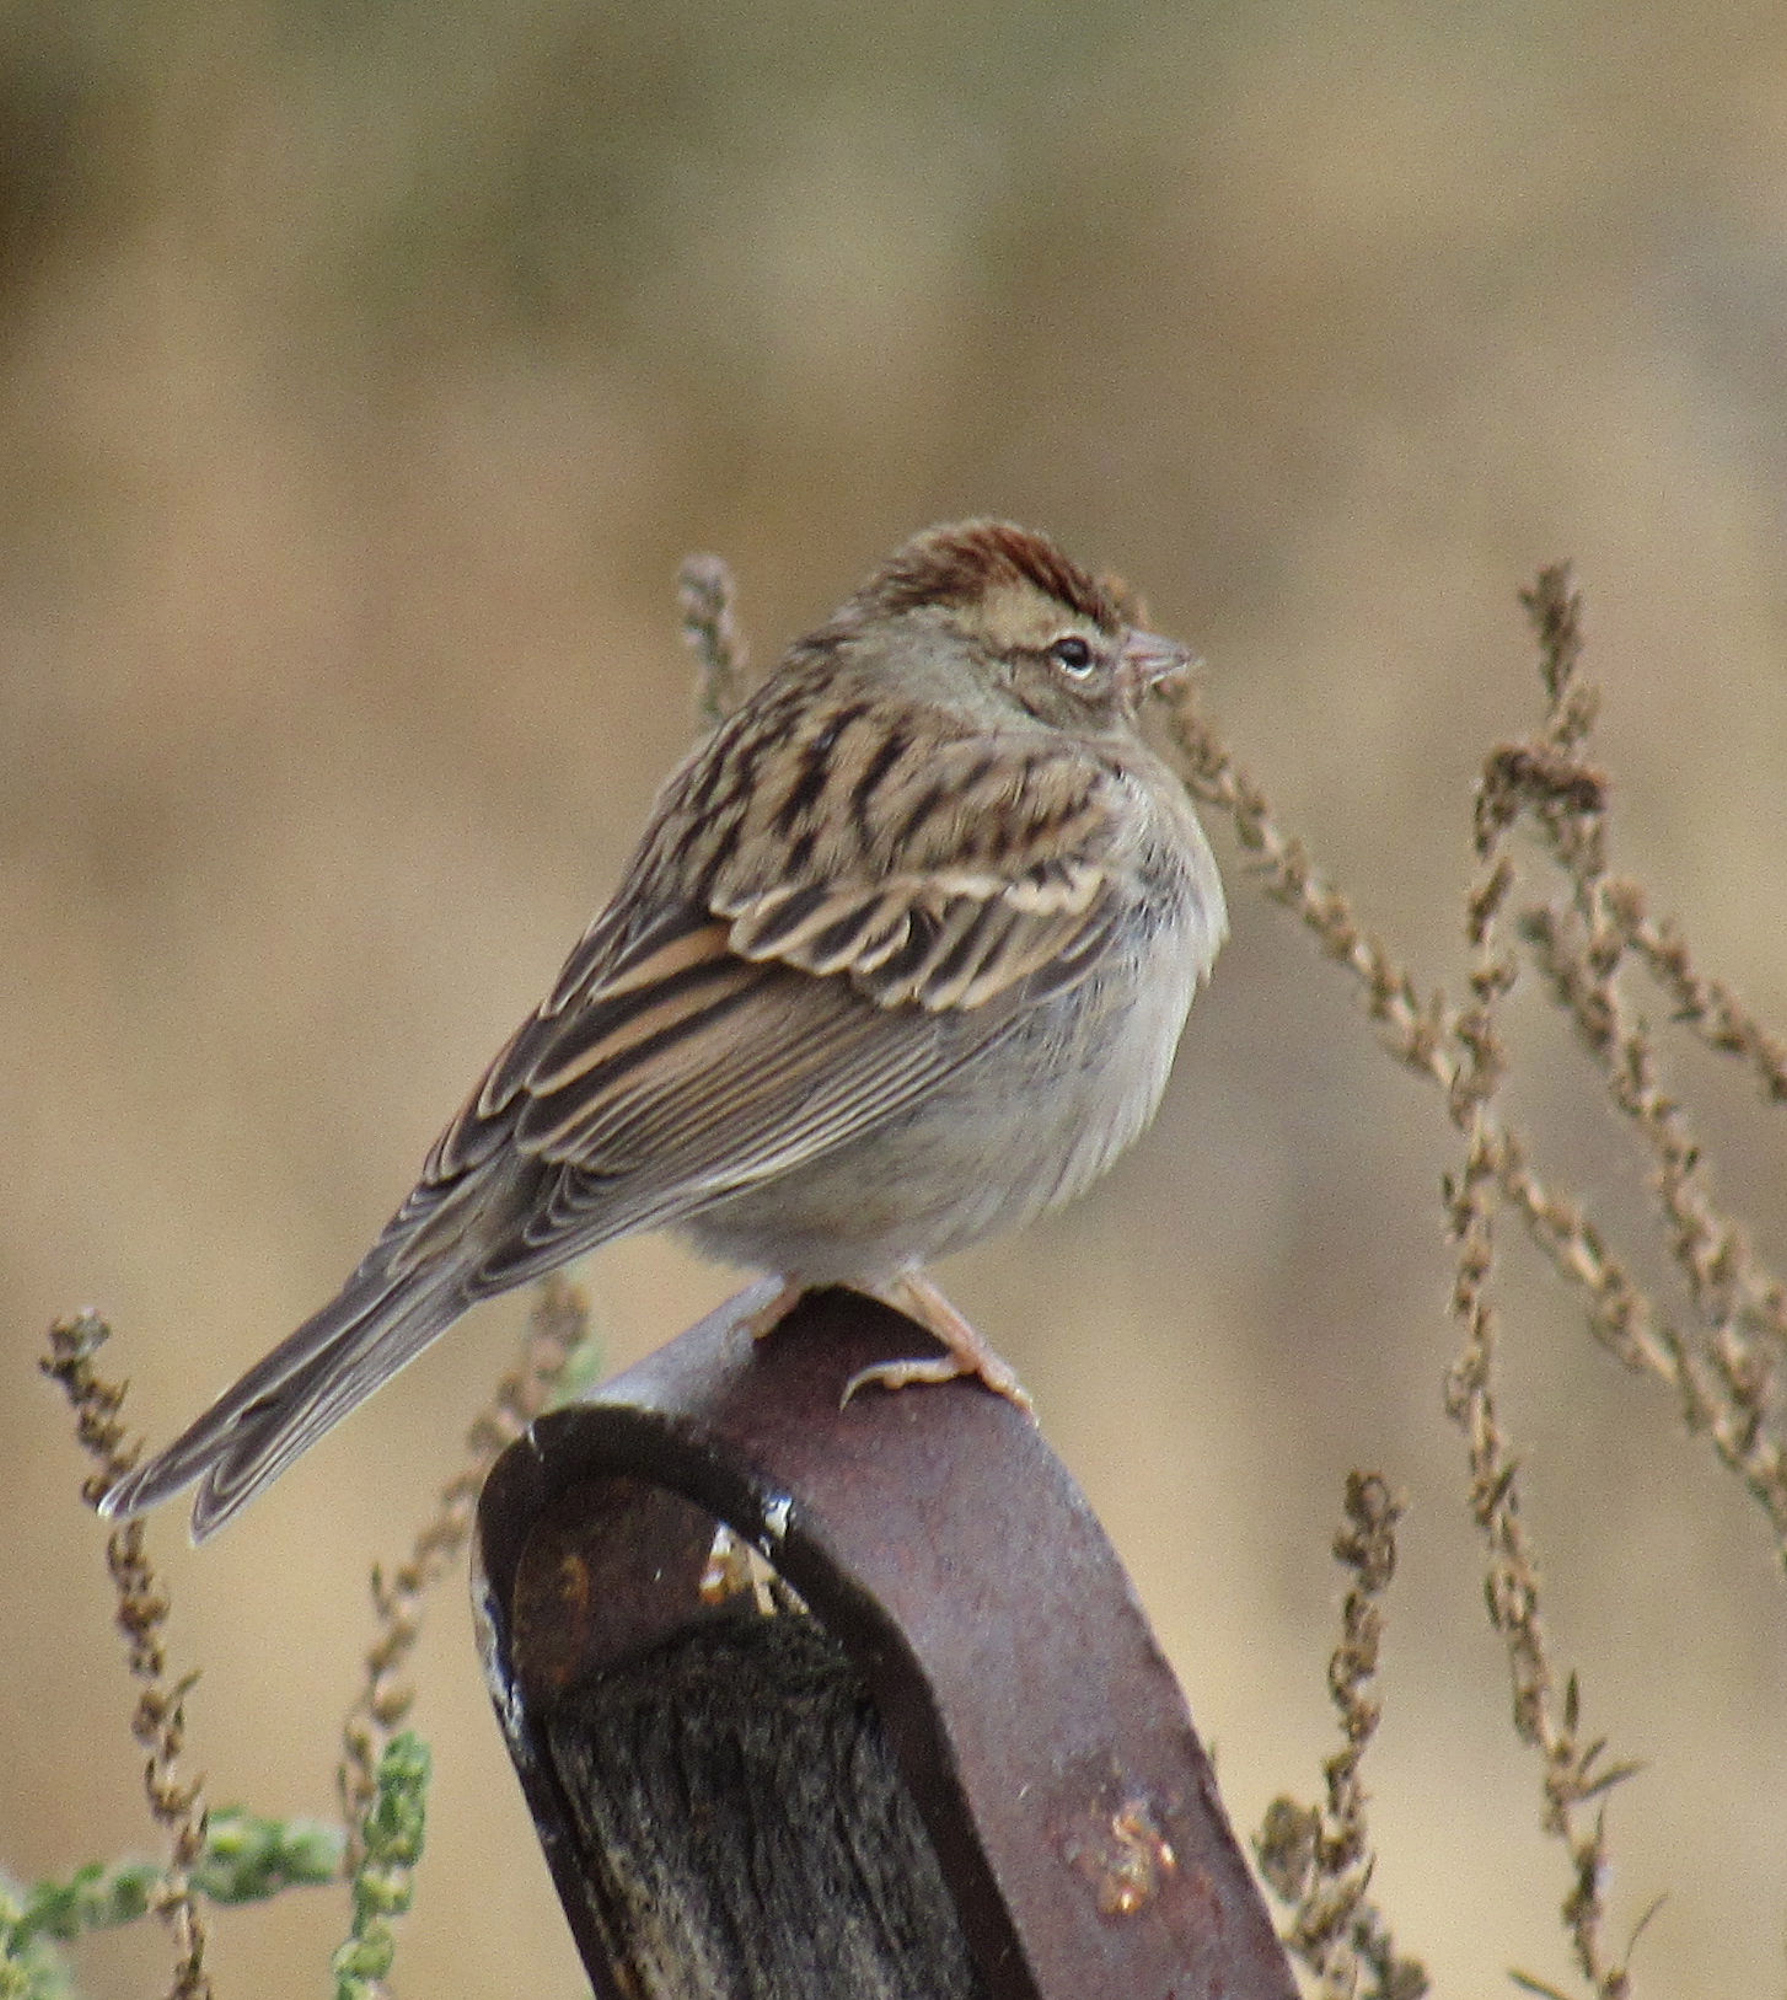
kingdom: Animalia
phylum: Chordata
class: Aves
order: Passeriformes
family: Passerellidae
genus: Spizella
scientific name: Spizella passerina
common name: Chipping sparrow
